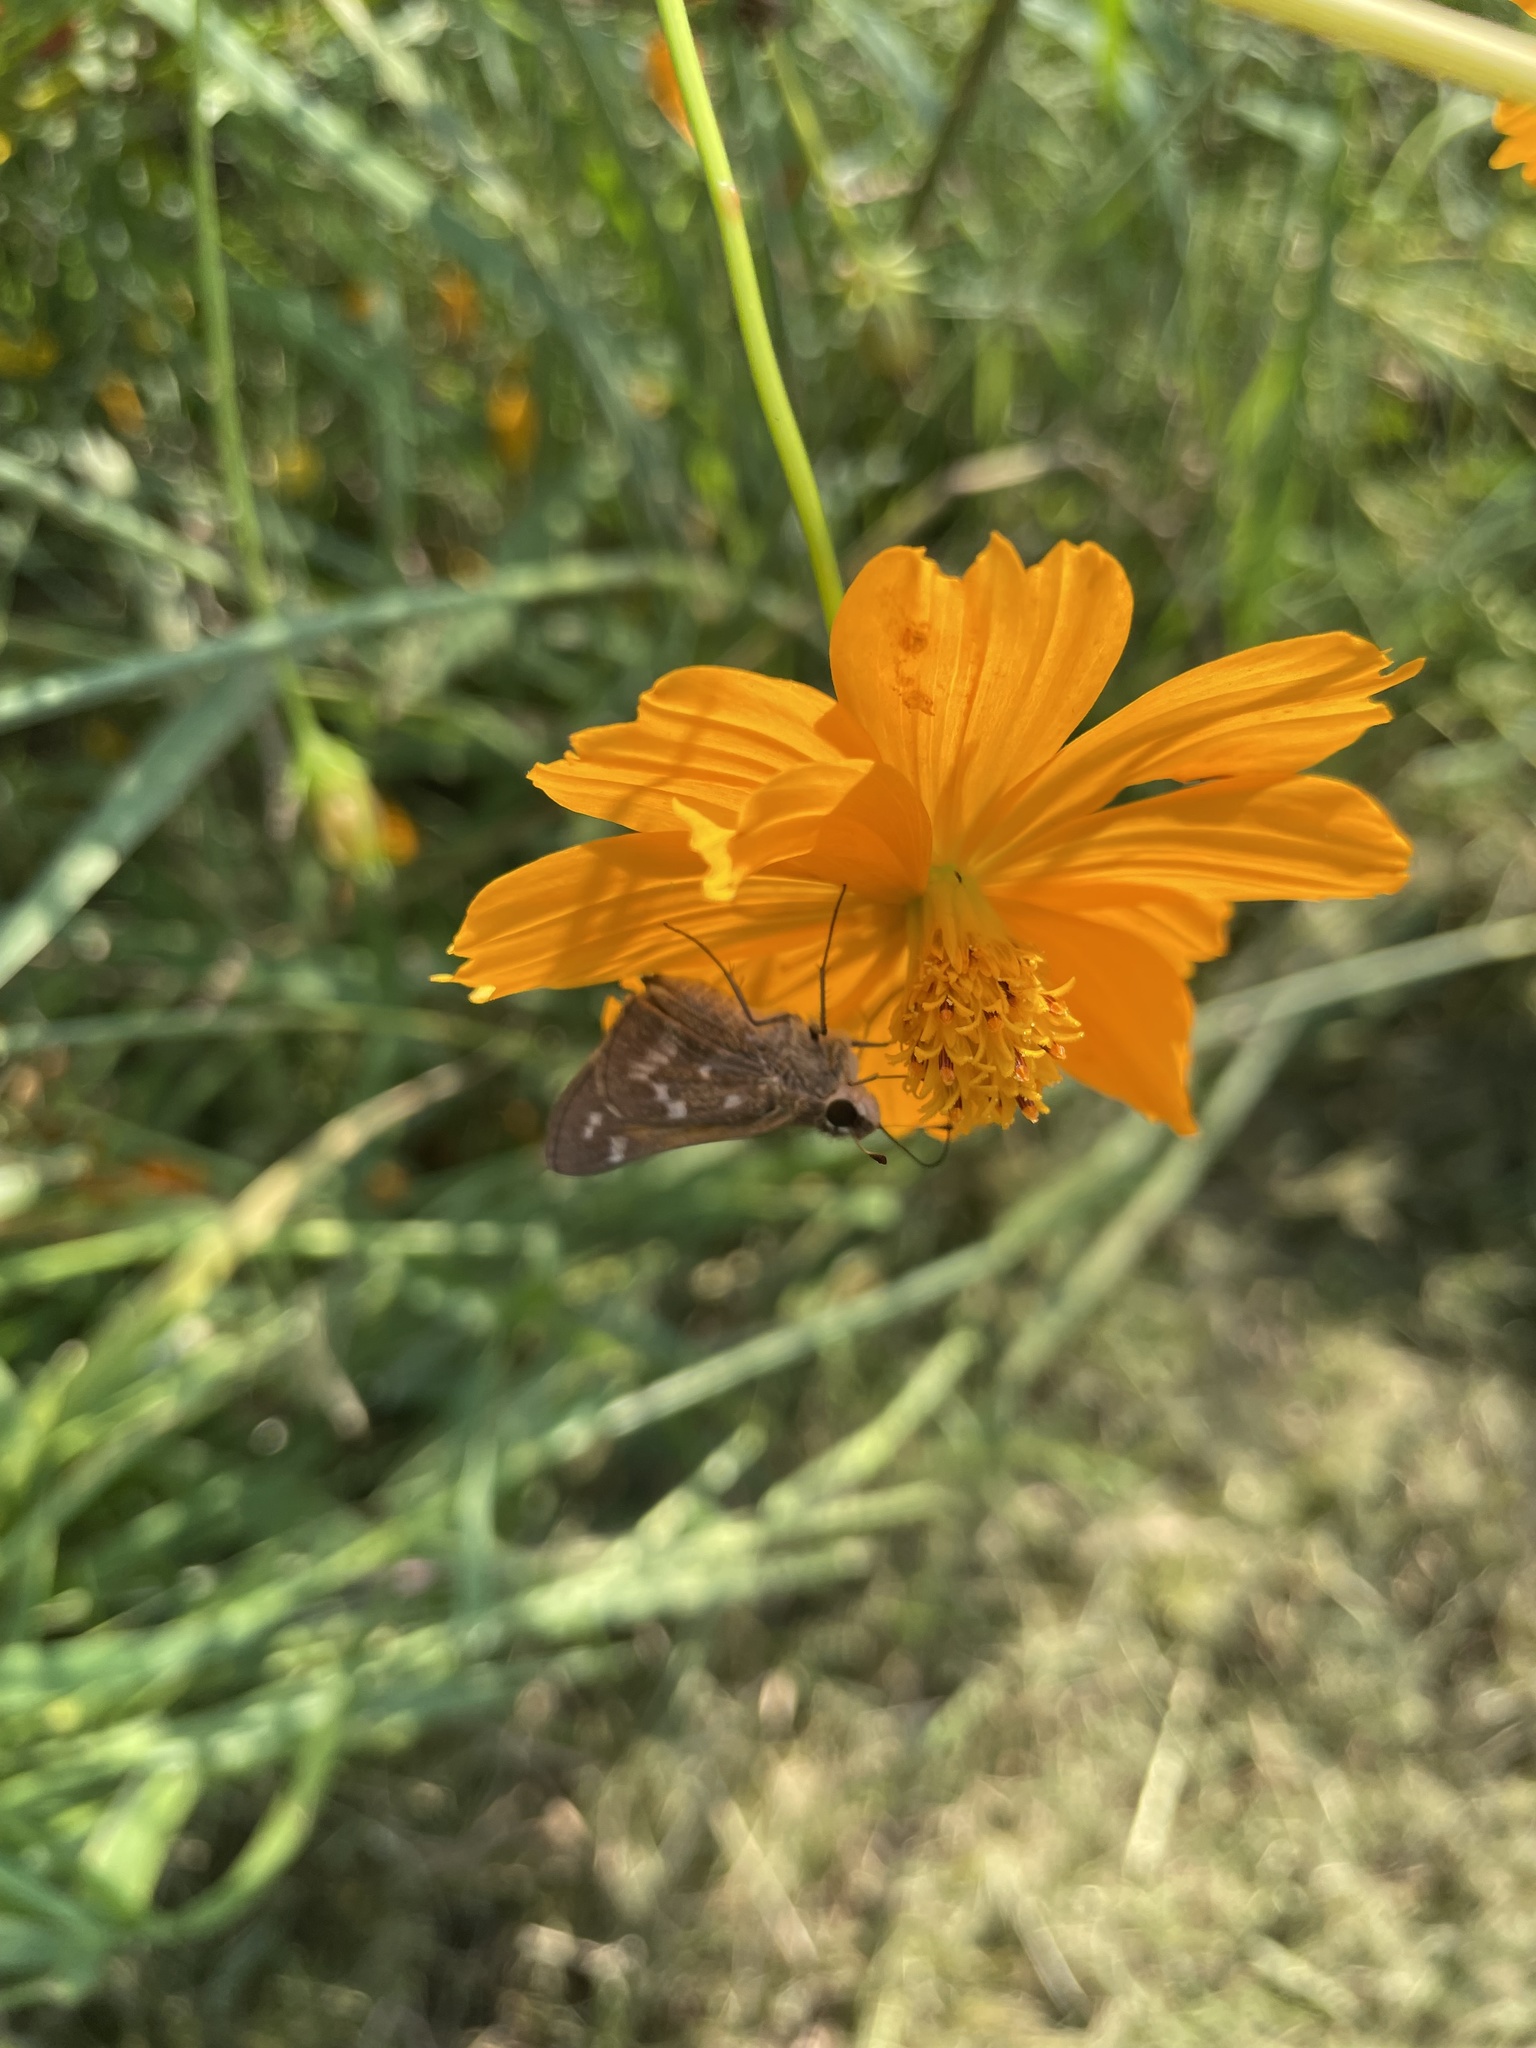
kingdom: Animalia
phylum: Arthropoda
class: Insecta
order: Lepidoptera
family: Hesperiidae
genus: Atalopedes
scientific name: Atalopedes
